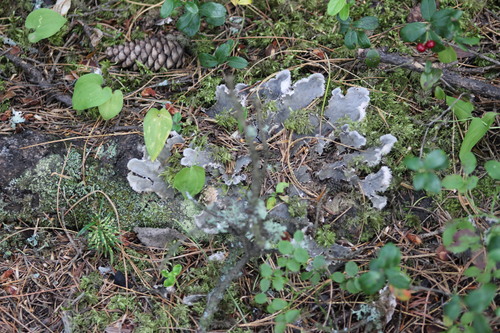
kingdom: Fungi
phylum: Ascomycota
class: Lecanoromycetes
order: Peltigerales
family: Peltigeraceae
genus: Peltigera
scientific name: Peltigera
